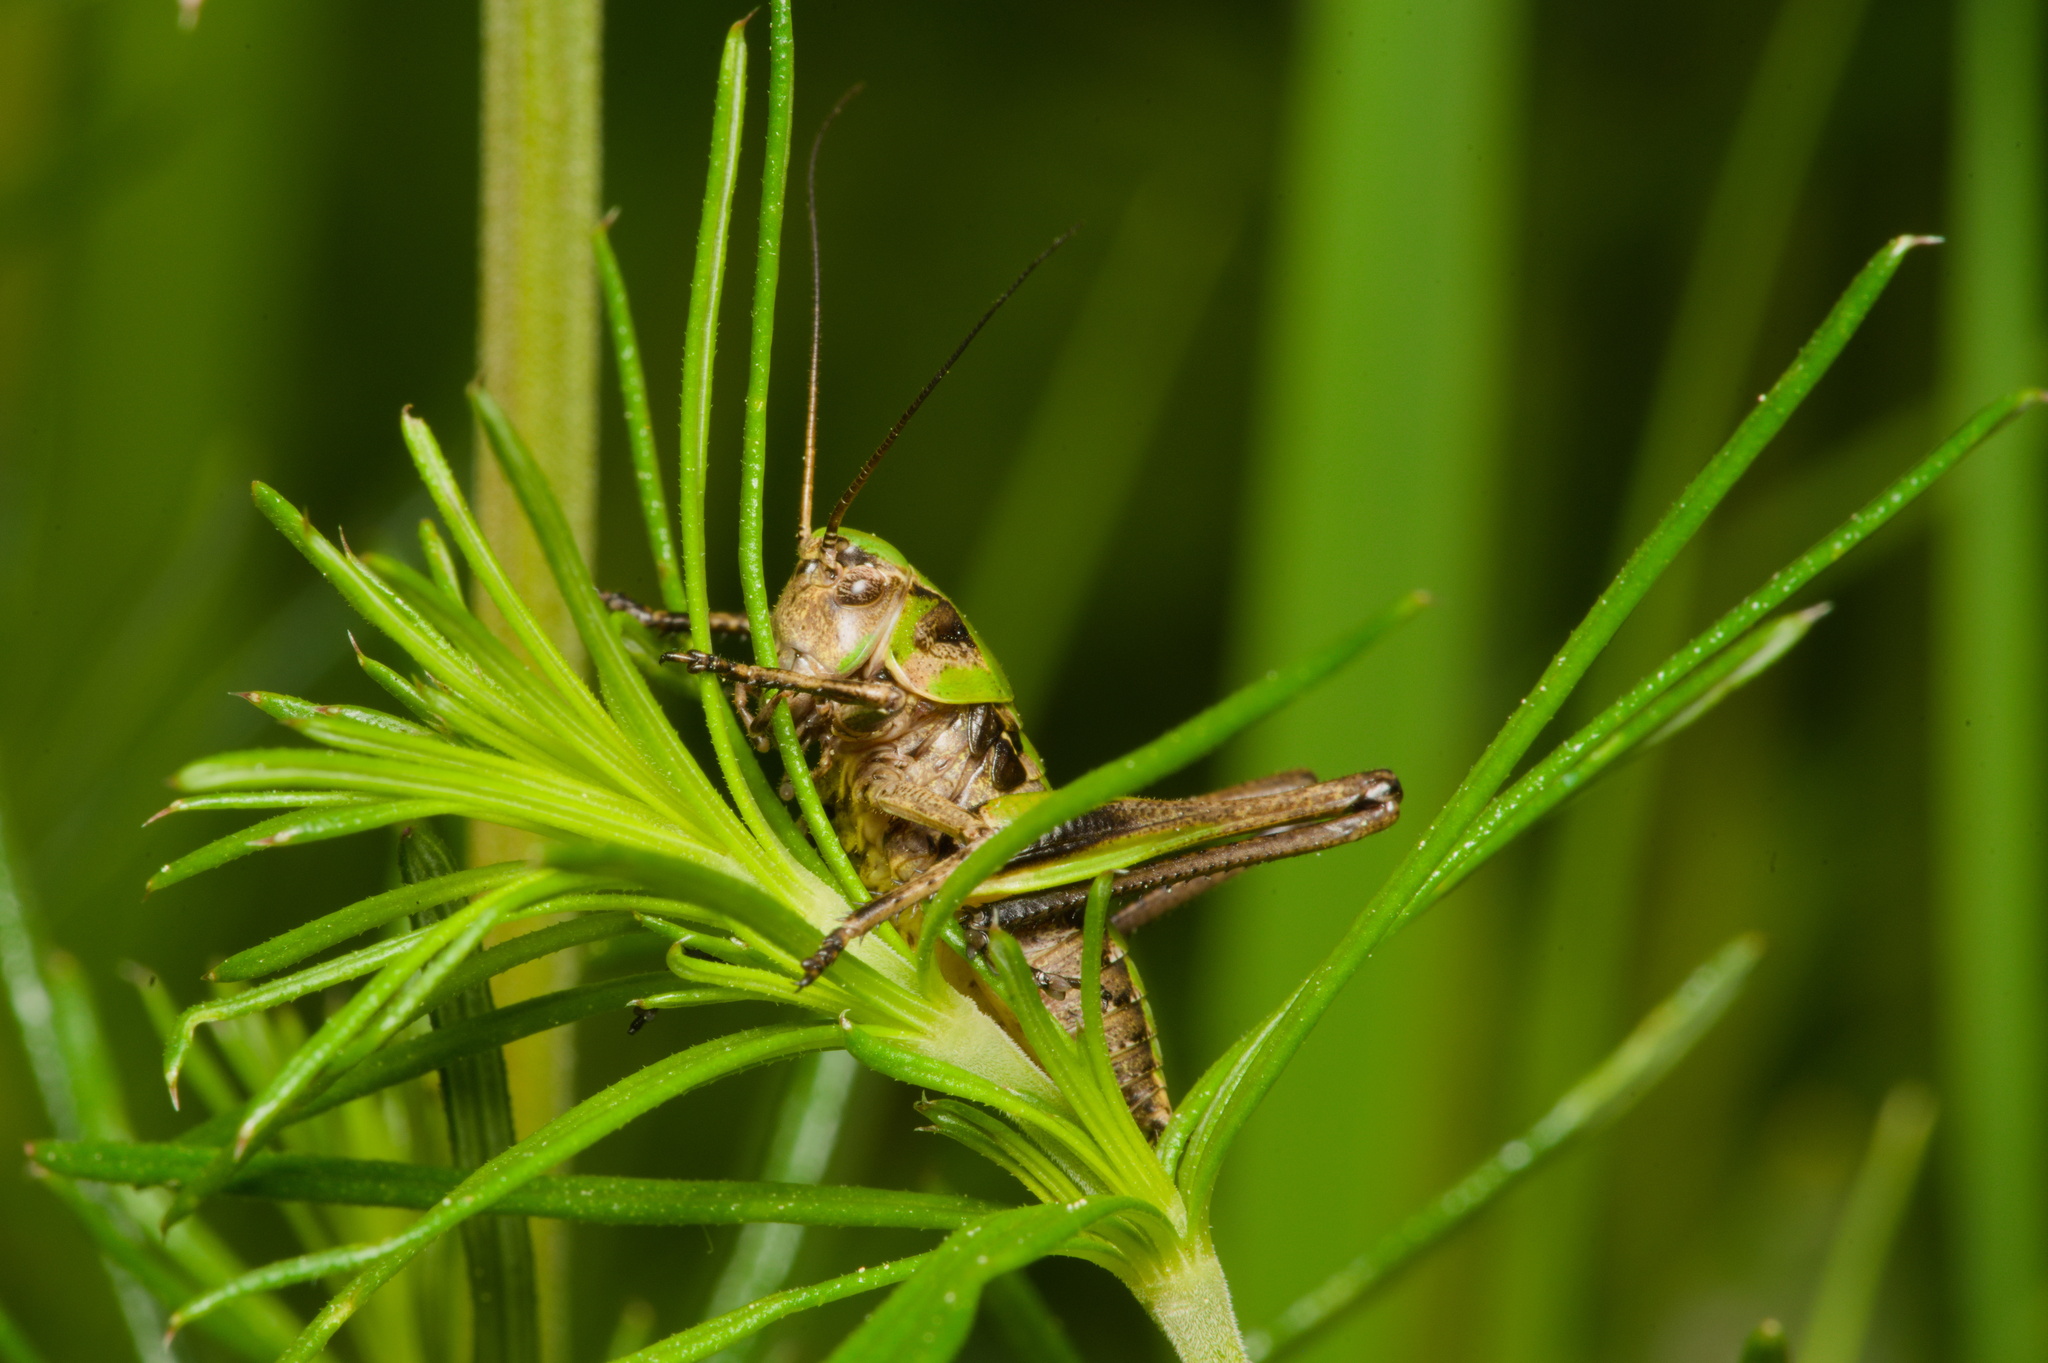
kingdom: Animalia
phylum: Arthropoda
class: Insecta
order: Orthoptera
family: Tettigoniidae
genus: Decticus
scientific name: Decticus verrucivorus
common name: Wart-biter
